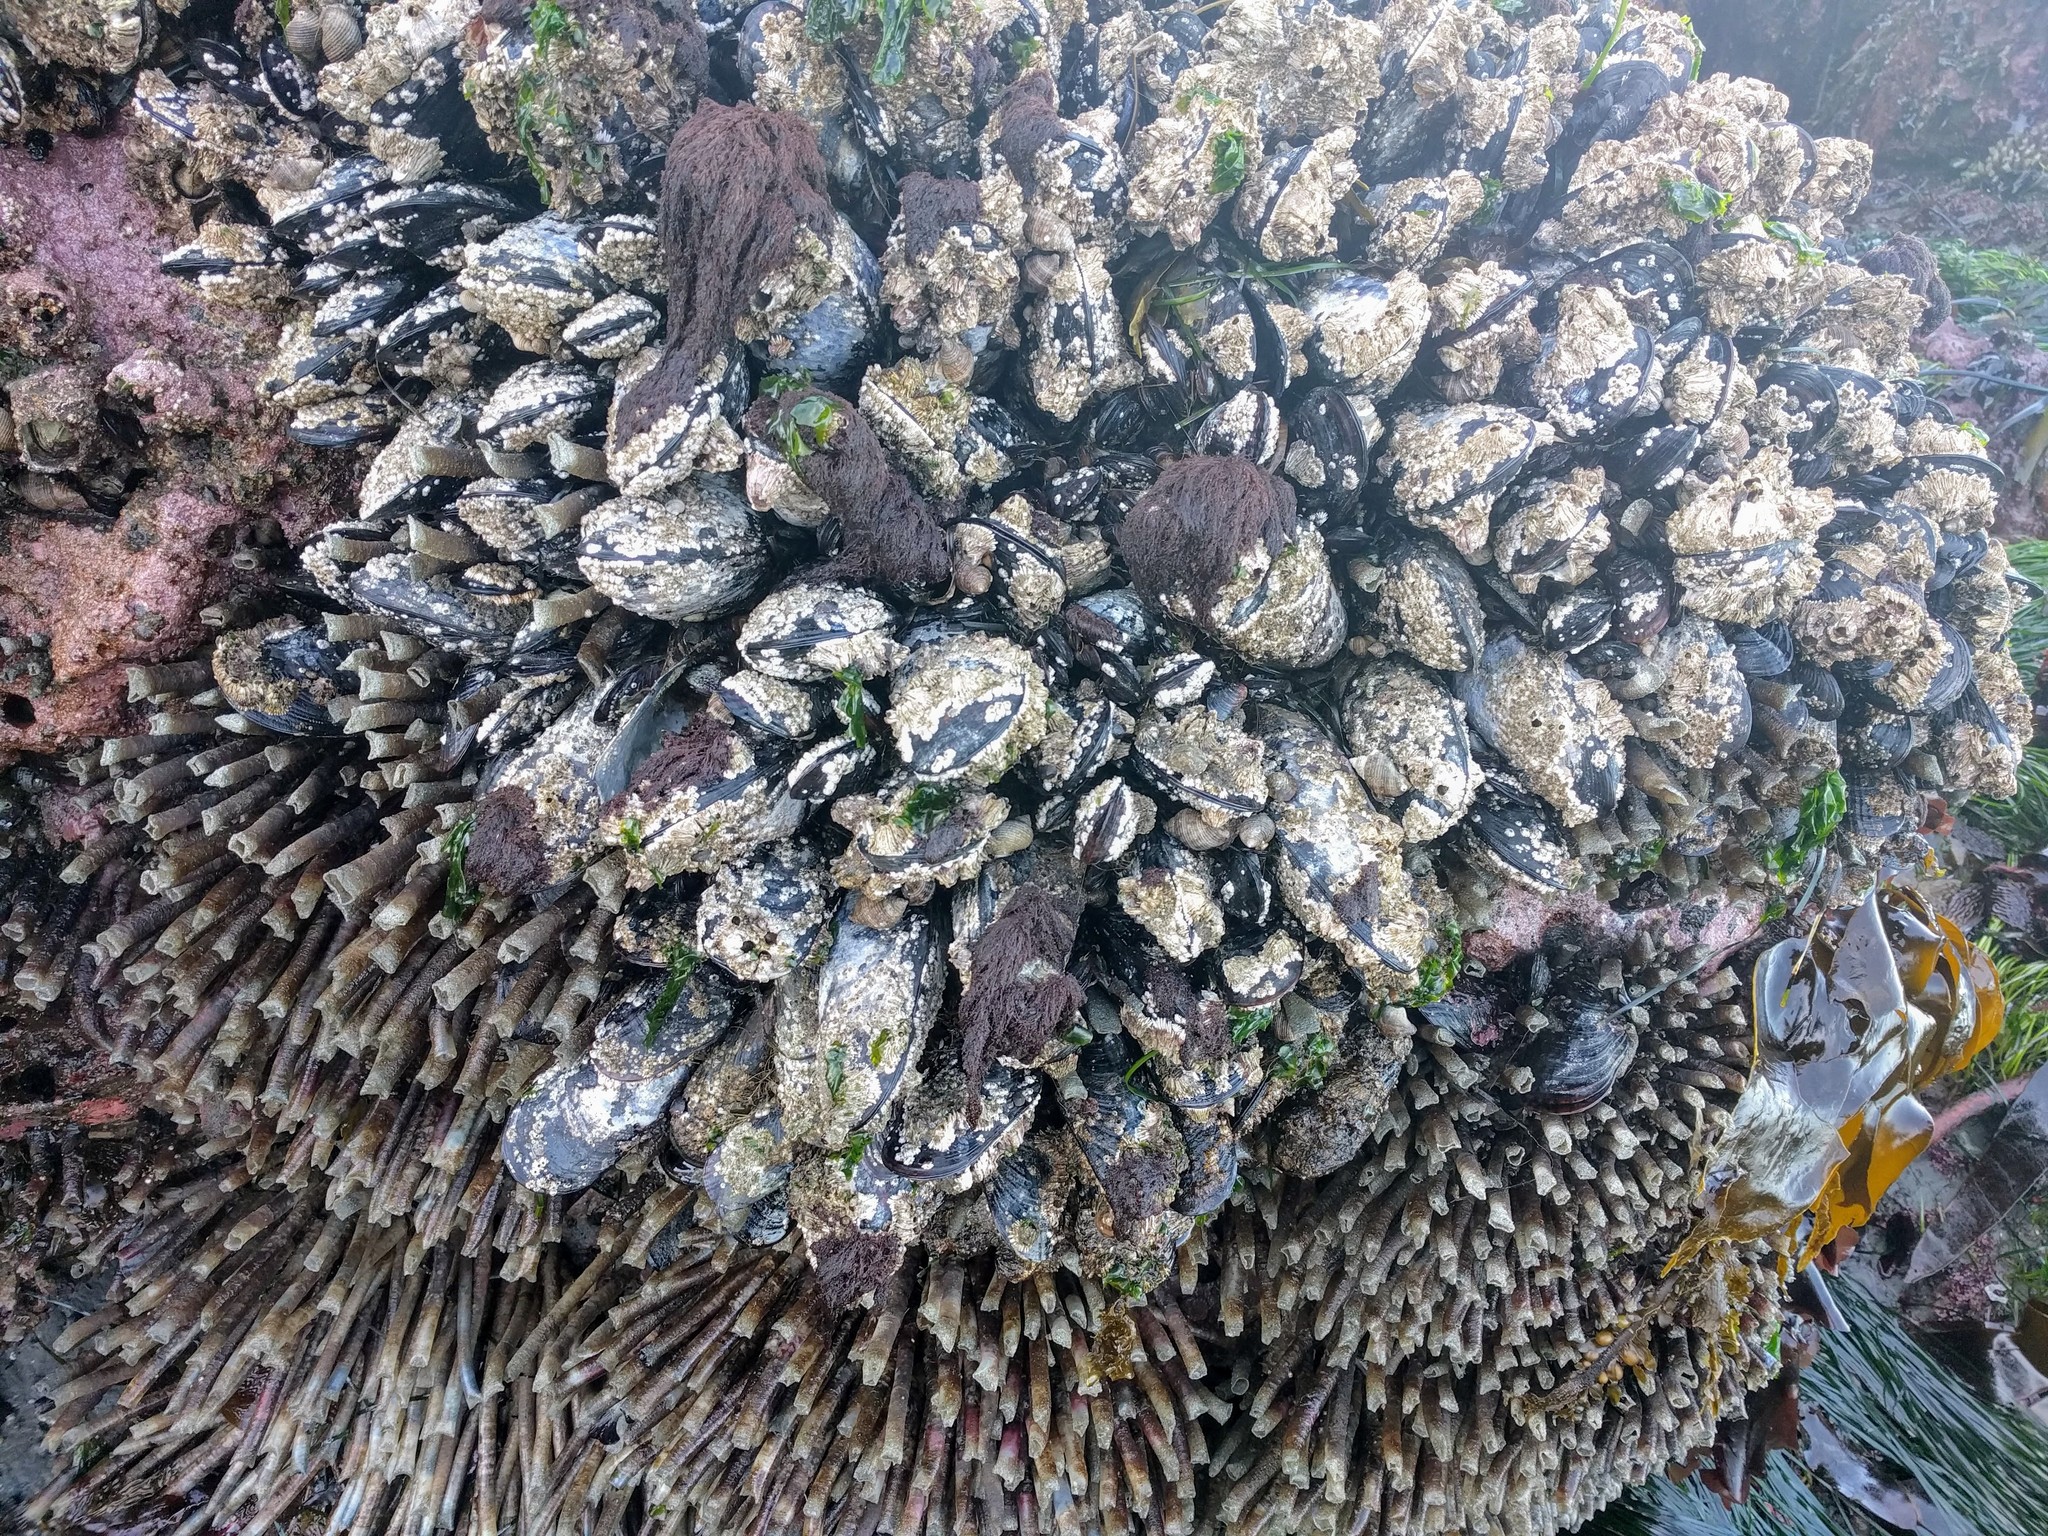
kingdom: Animalia
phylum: Annelida
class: Polychaeta
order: Sabellida
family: Sabellidae
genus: Eudistylia
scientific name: Eudistylia vancouveri
